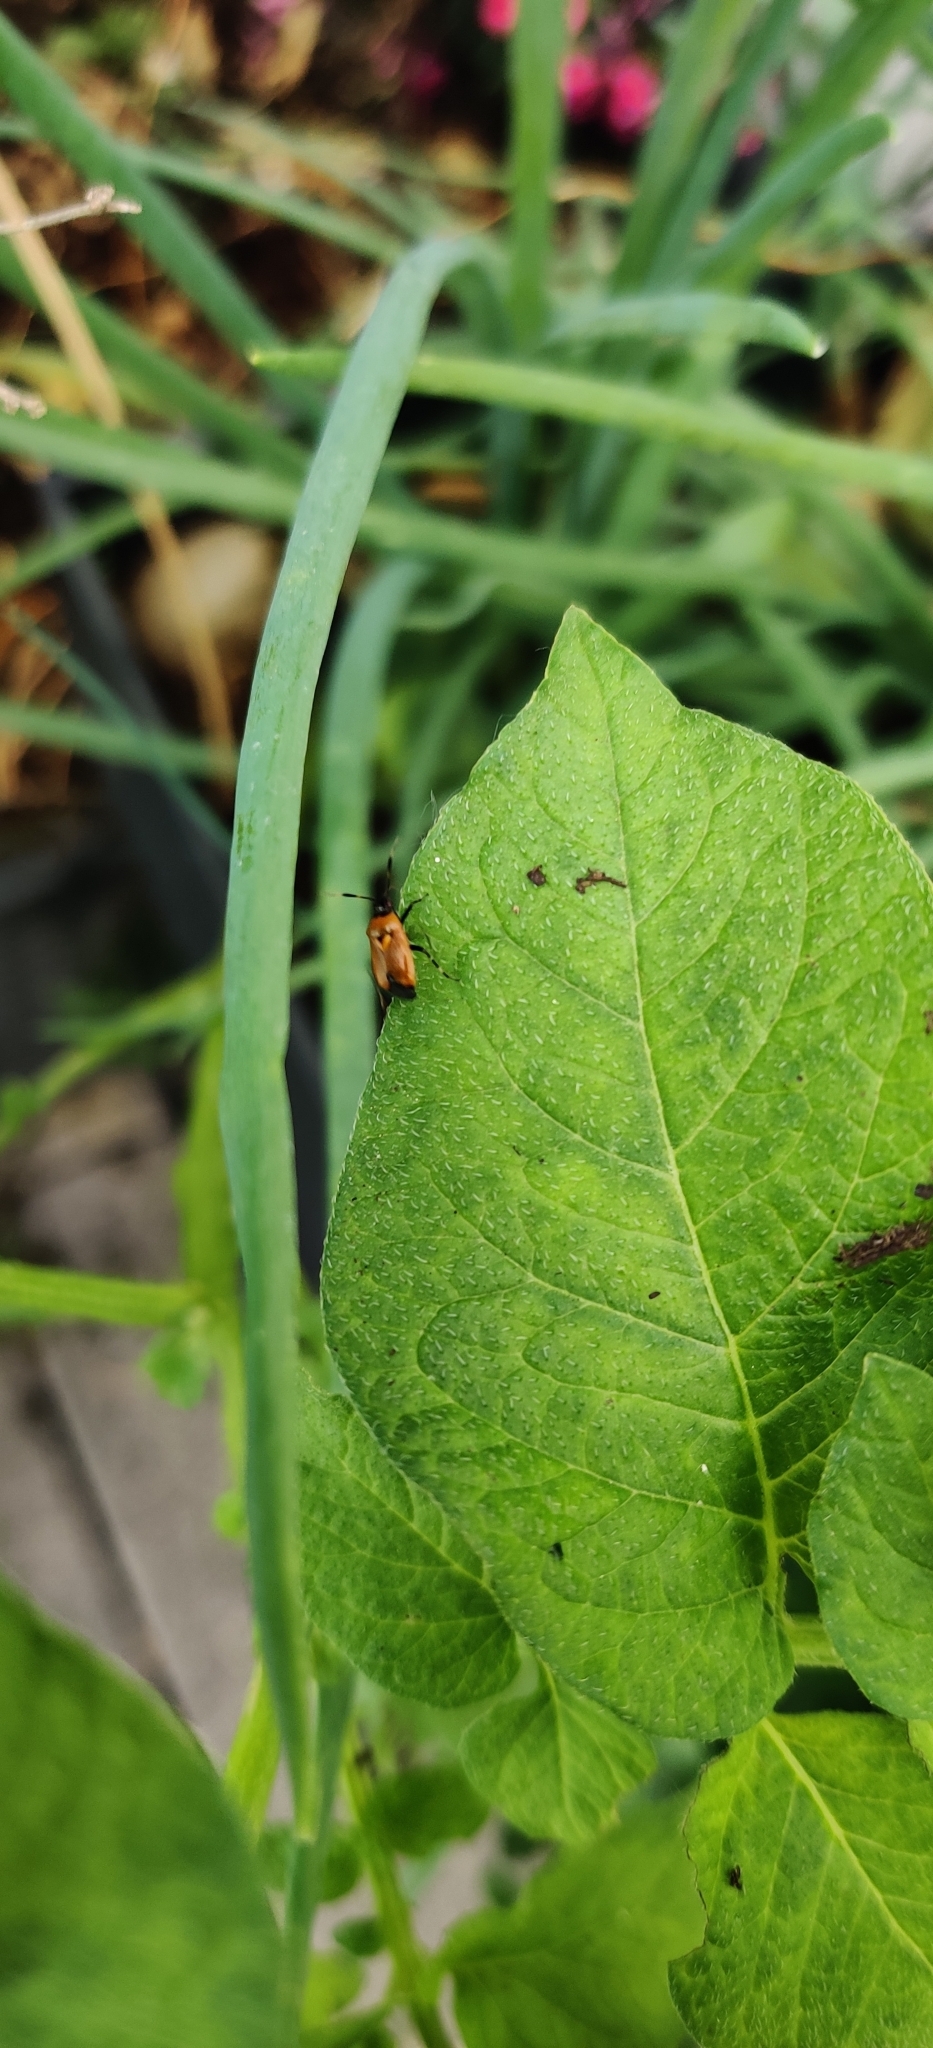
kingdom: Animalia
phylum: Arthropoda
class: Insecta
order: Hemiptera
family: Miridae
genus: Deraeocoris
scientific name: Deraeocoris punctum
